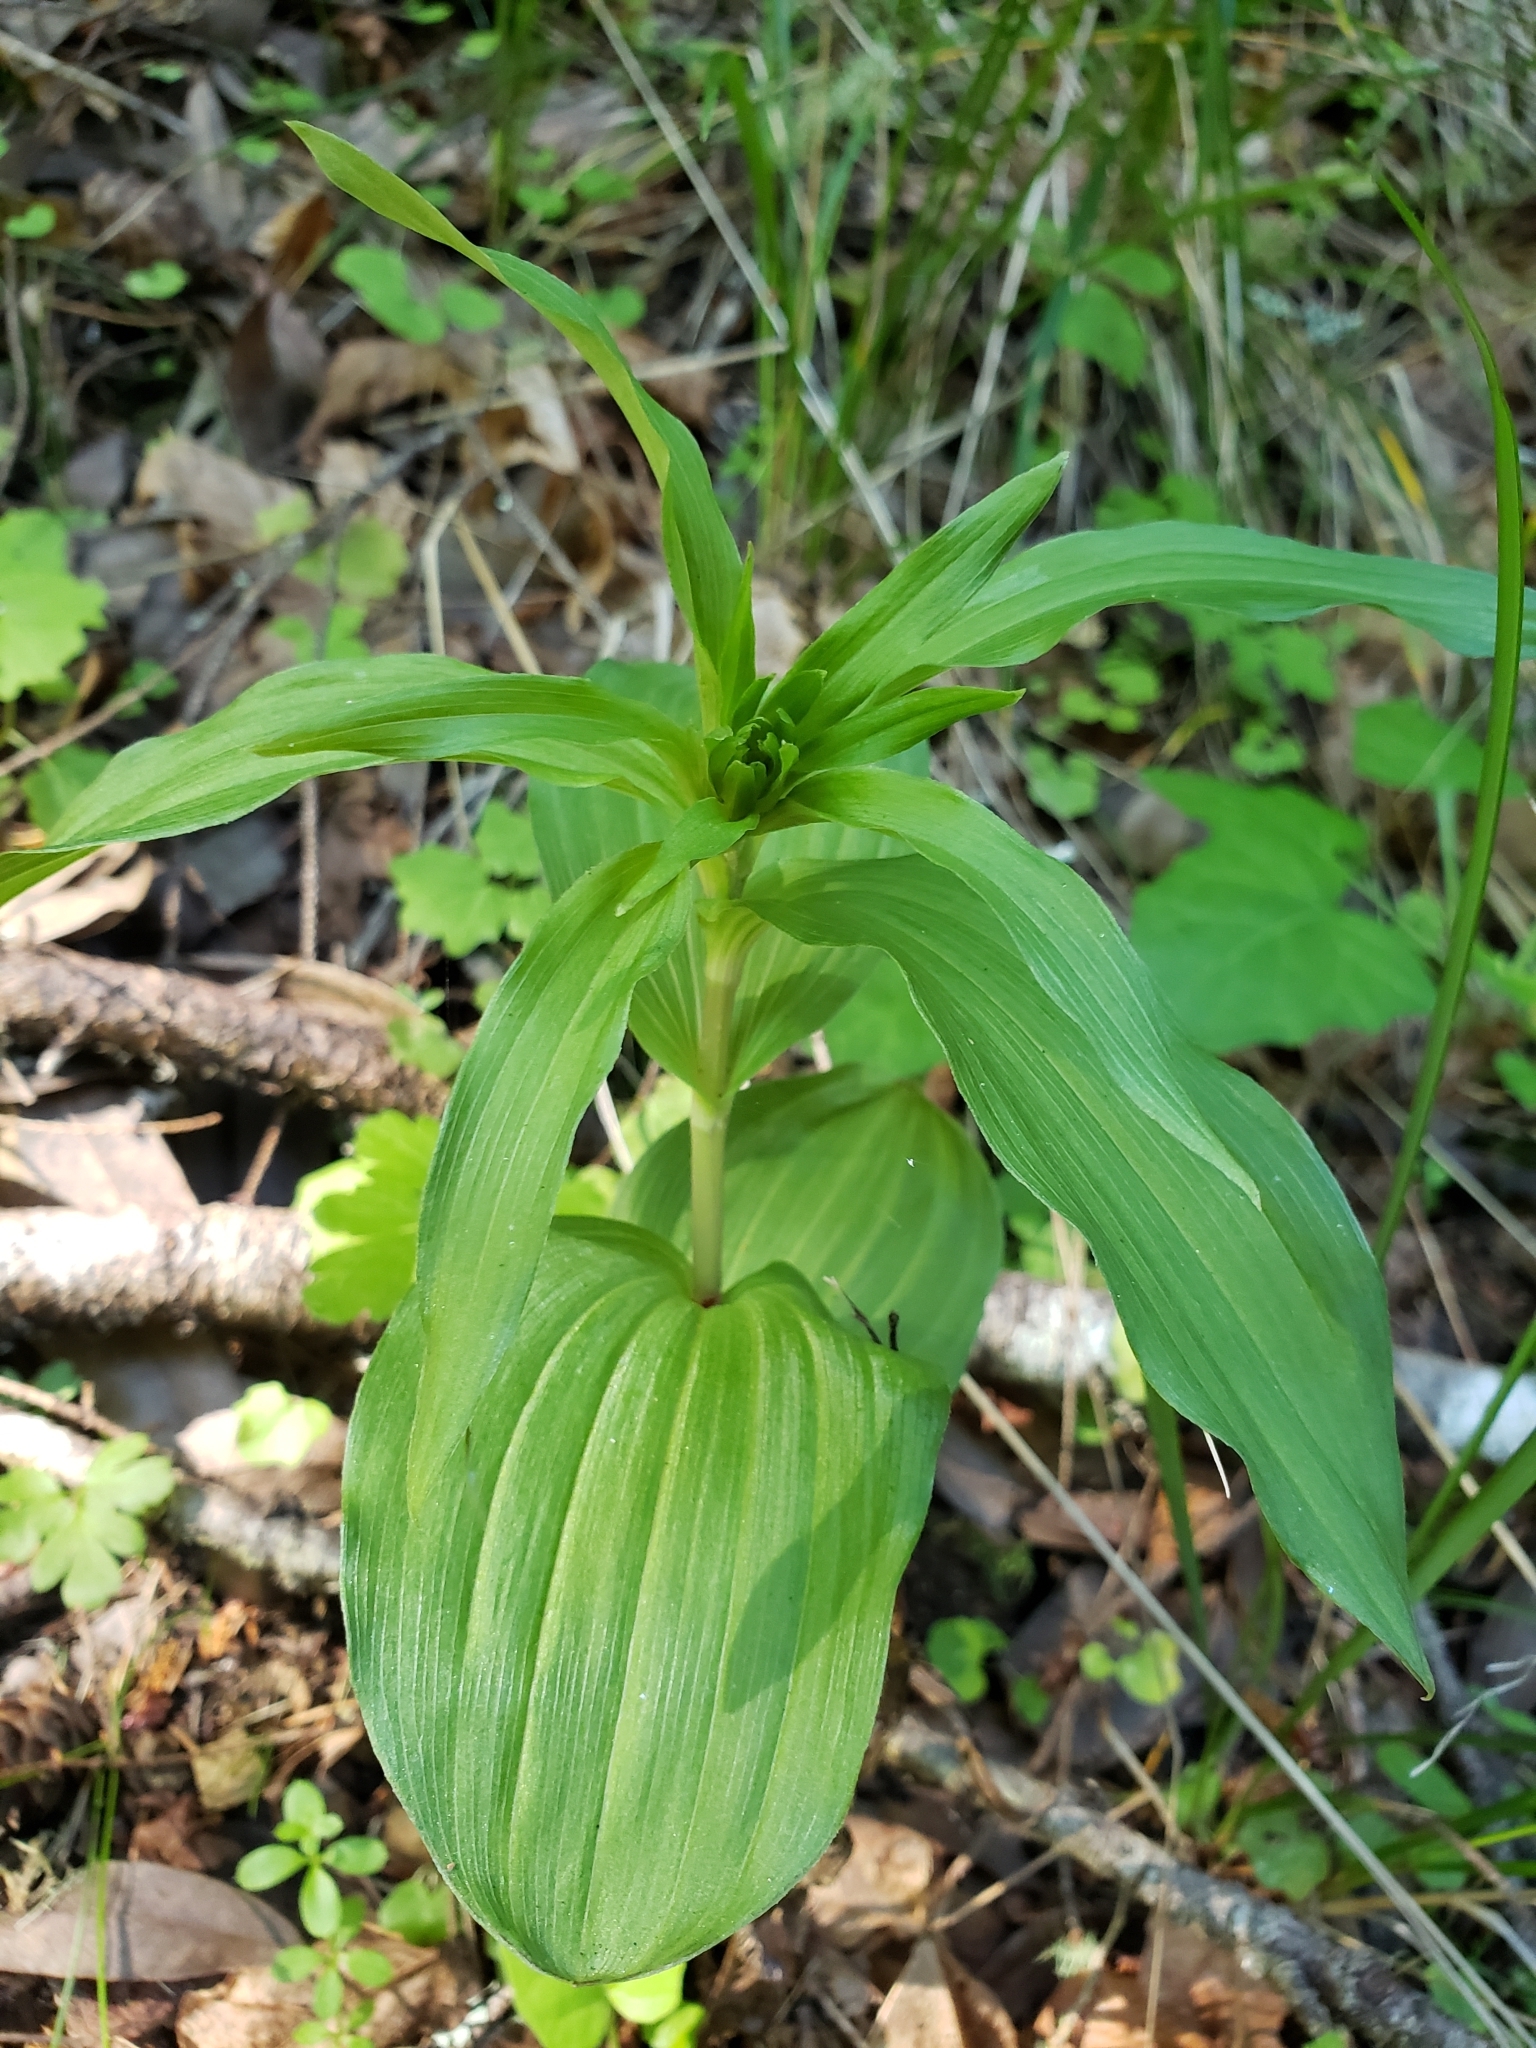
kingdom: Plantae
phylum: Tracheophyta
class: Liliopsida
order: Asparagales
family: Orchidaceae
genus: Epipactis
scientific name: Epipactis helleborine
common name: Broad-leaved helleborine
